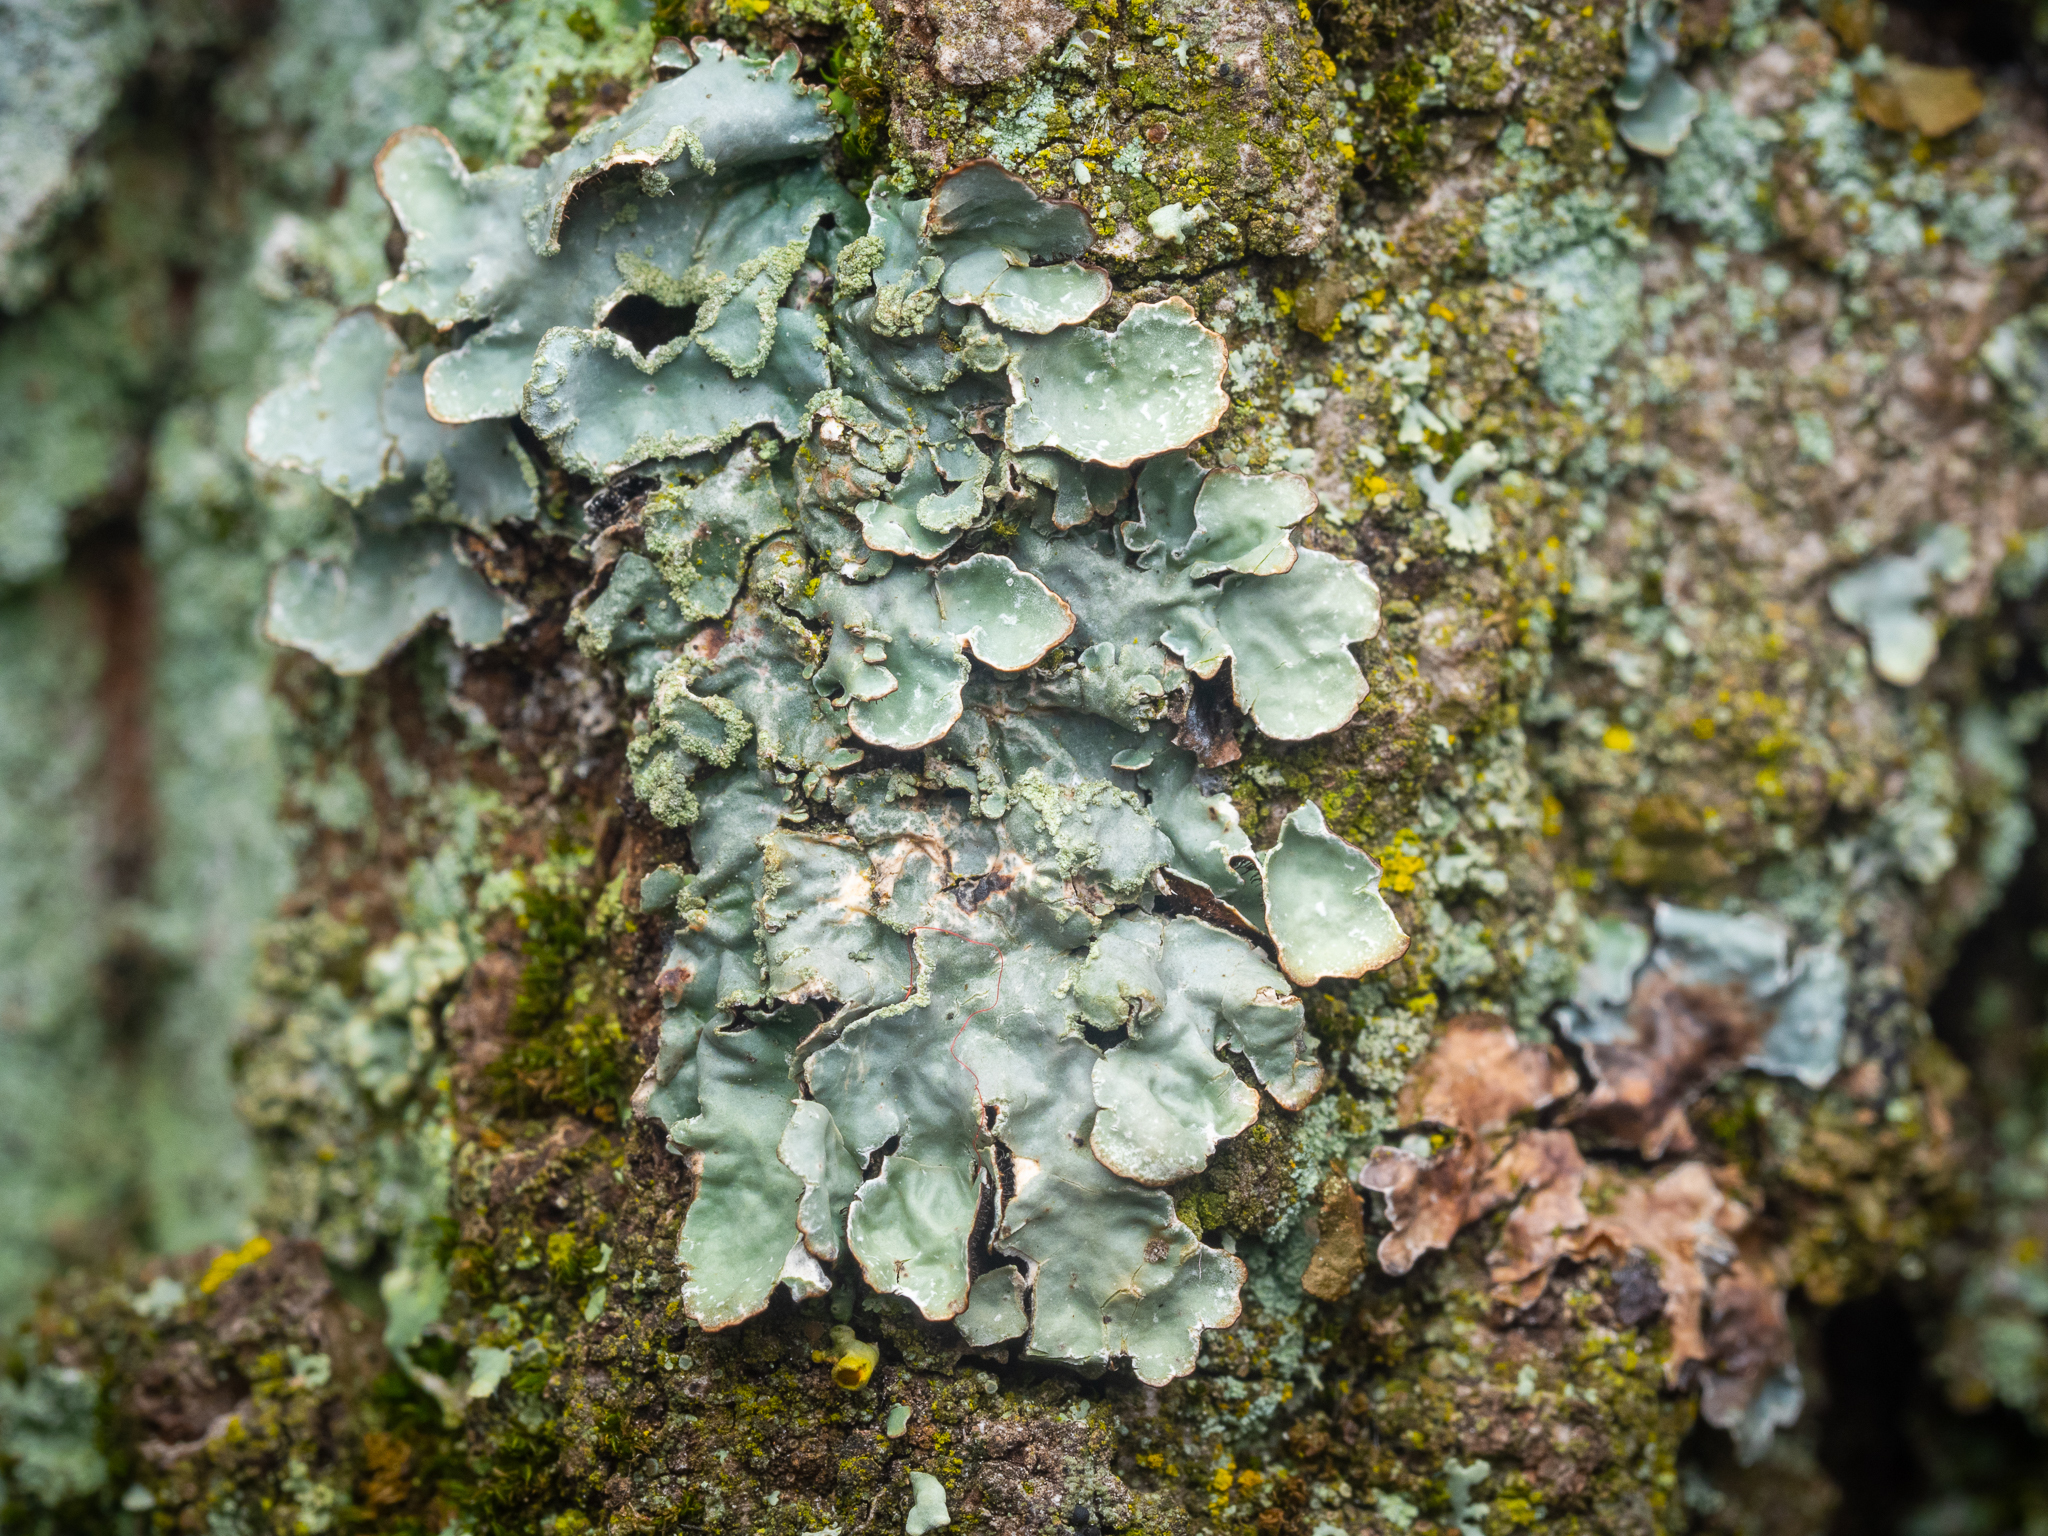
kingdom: Fungi
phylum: Ascomycota
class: Lecanoromycetes
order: Lecanorales
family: Parmeliaceae
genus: Parmelia
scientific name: Parmelia sulcata
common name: Netted shield lichen
